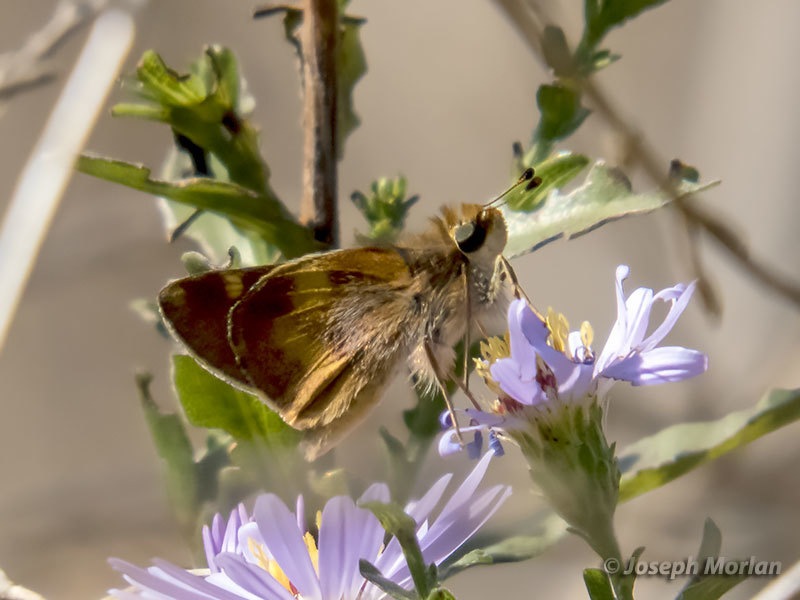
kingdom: Animalia
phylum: Arthropoda
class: Insecta
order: Lepidoptera
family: Hesperiidae
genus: Lon
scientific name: Lon melane
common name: Umber skipper
